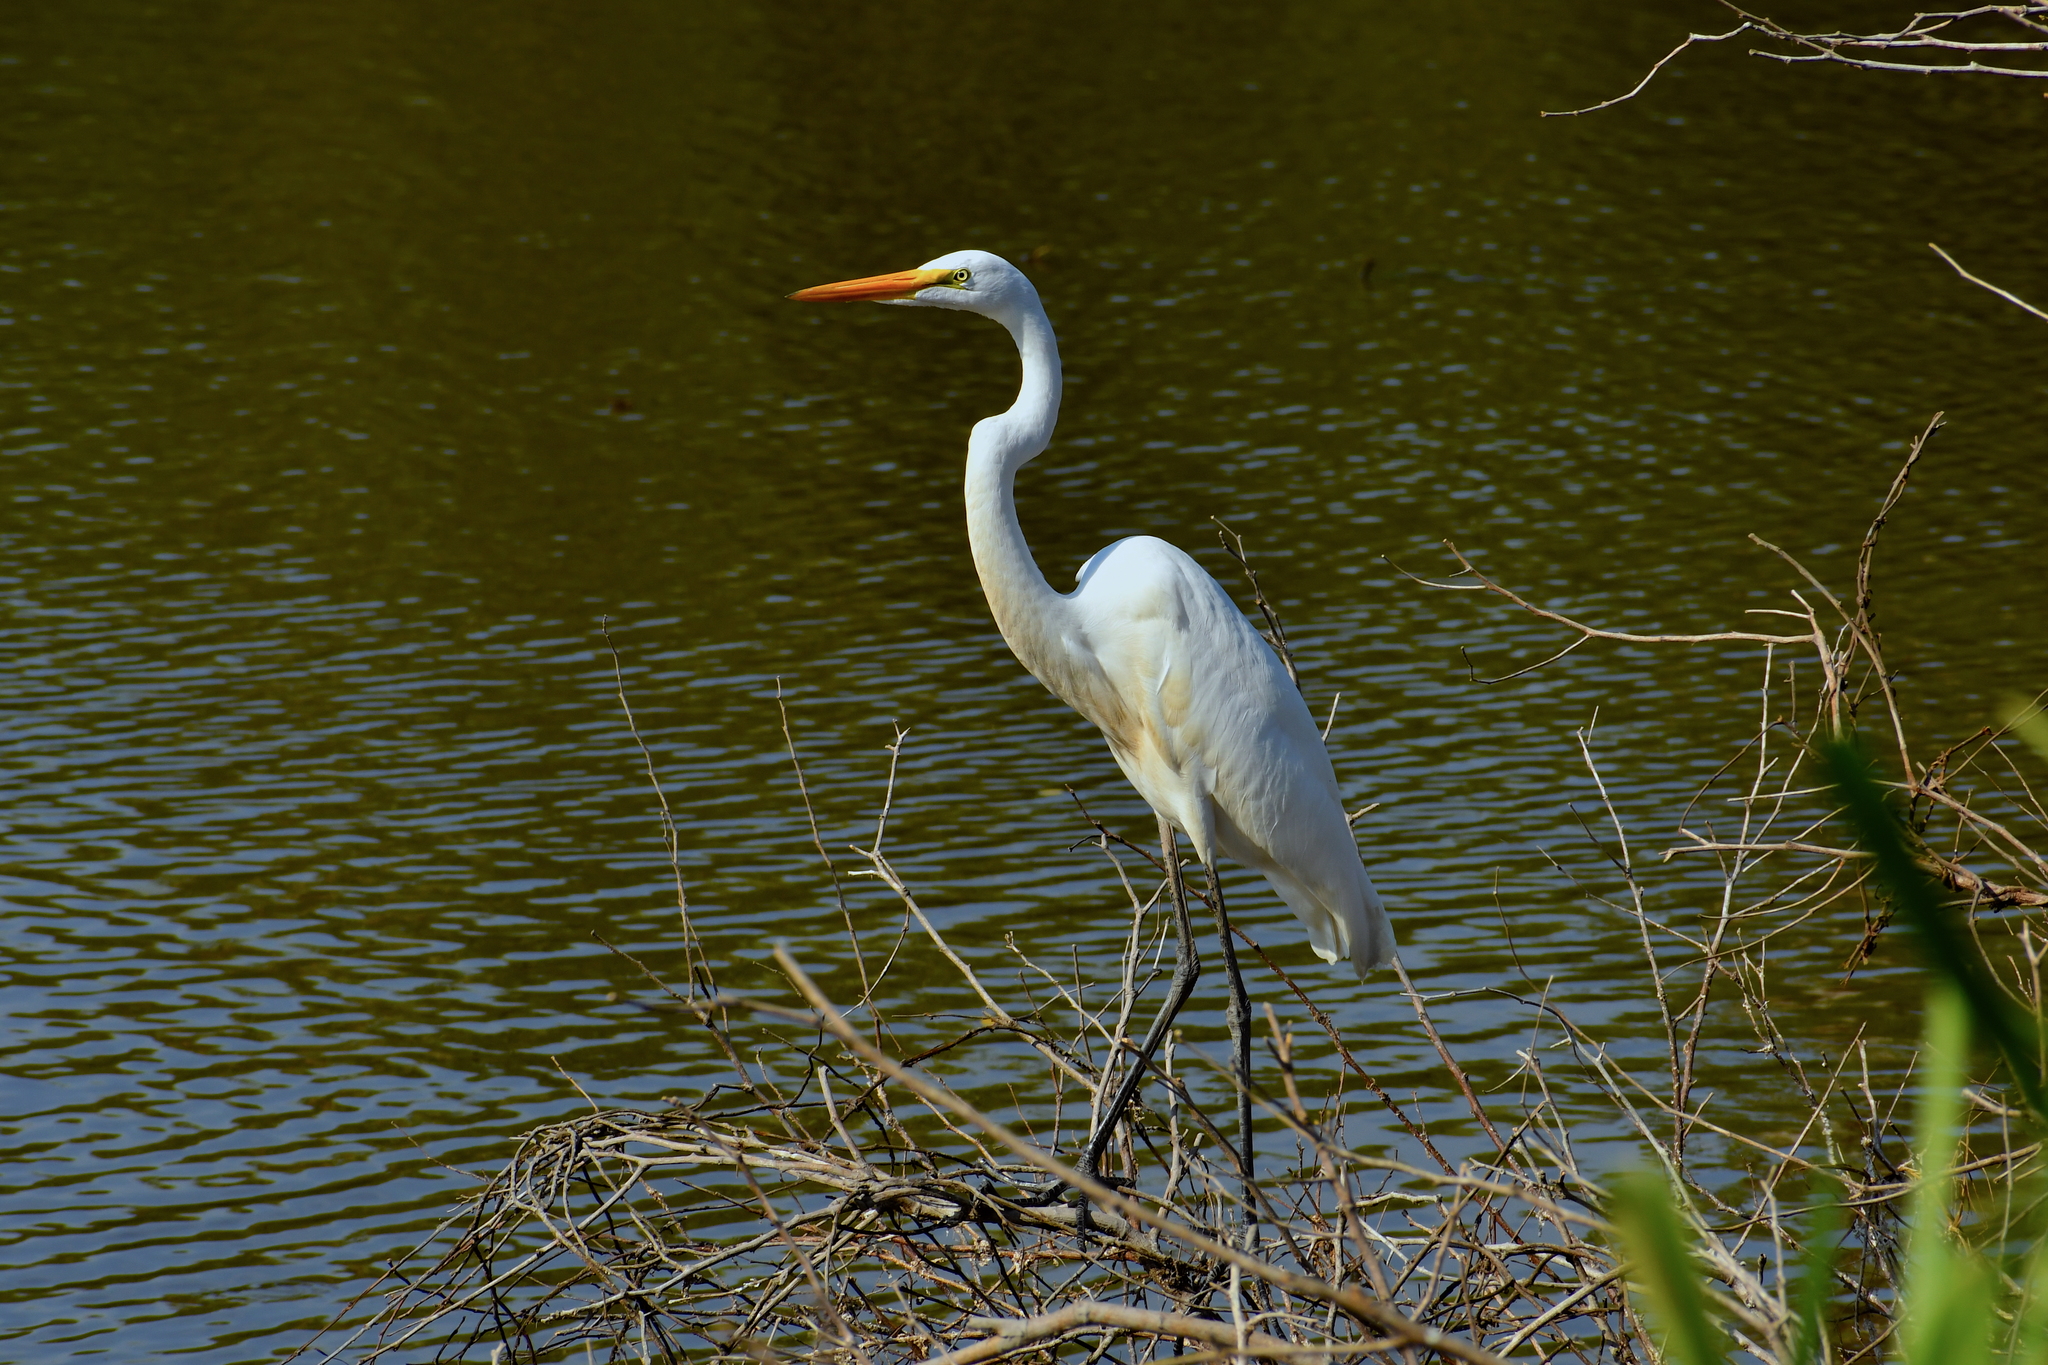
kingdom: Animalia
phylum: Chordata
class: Aves
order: Pelecaniformes
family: Ardeidae
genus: Ardea
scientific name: Ardea alba
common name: Great egret
